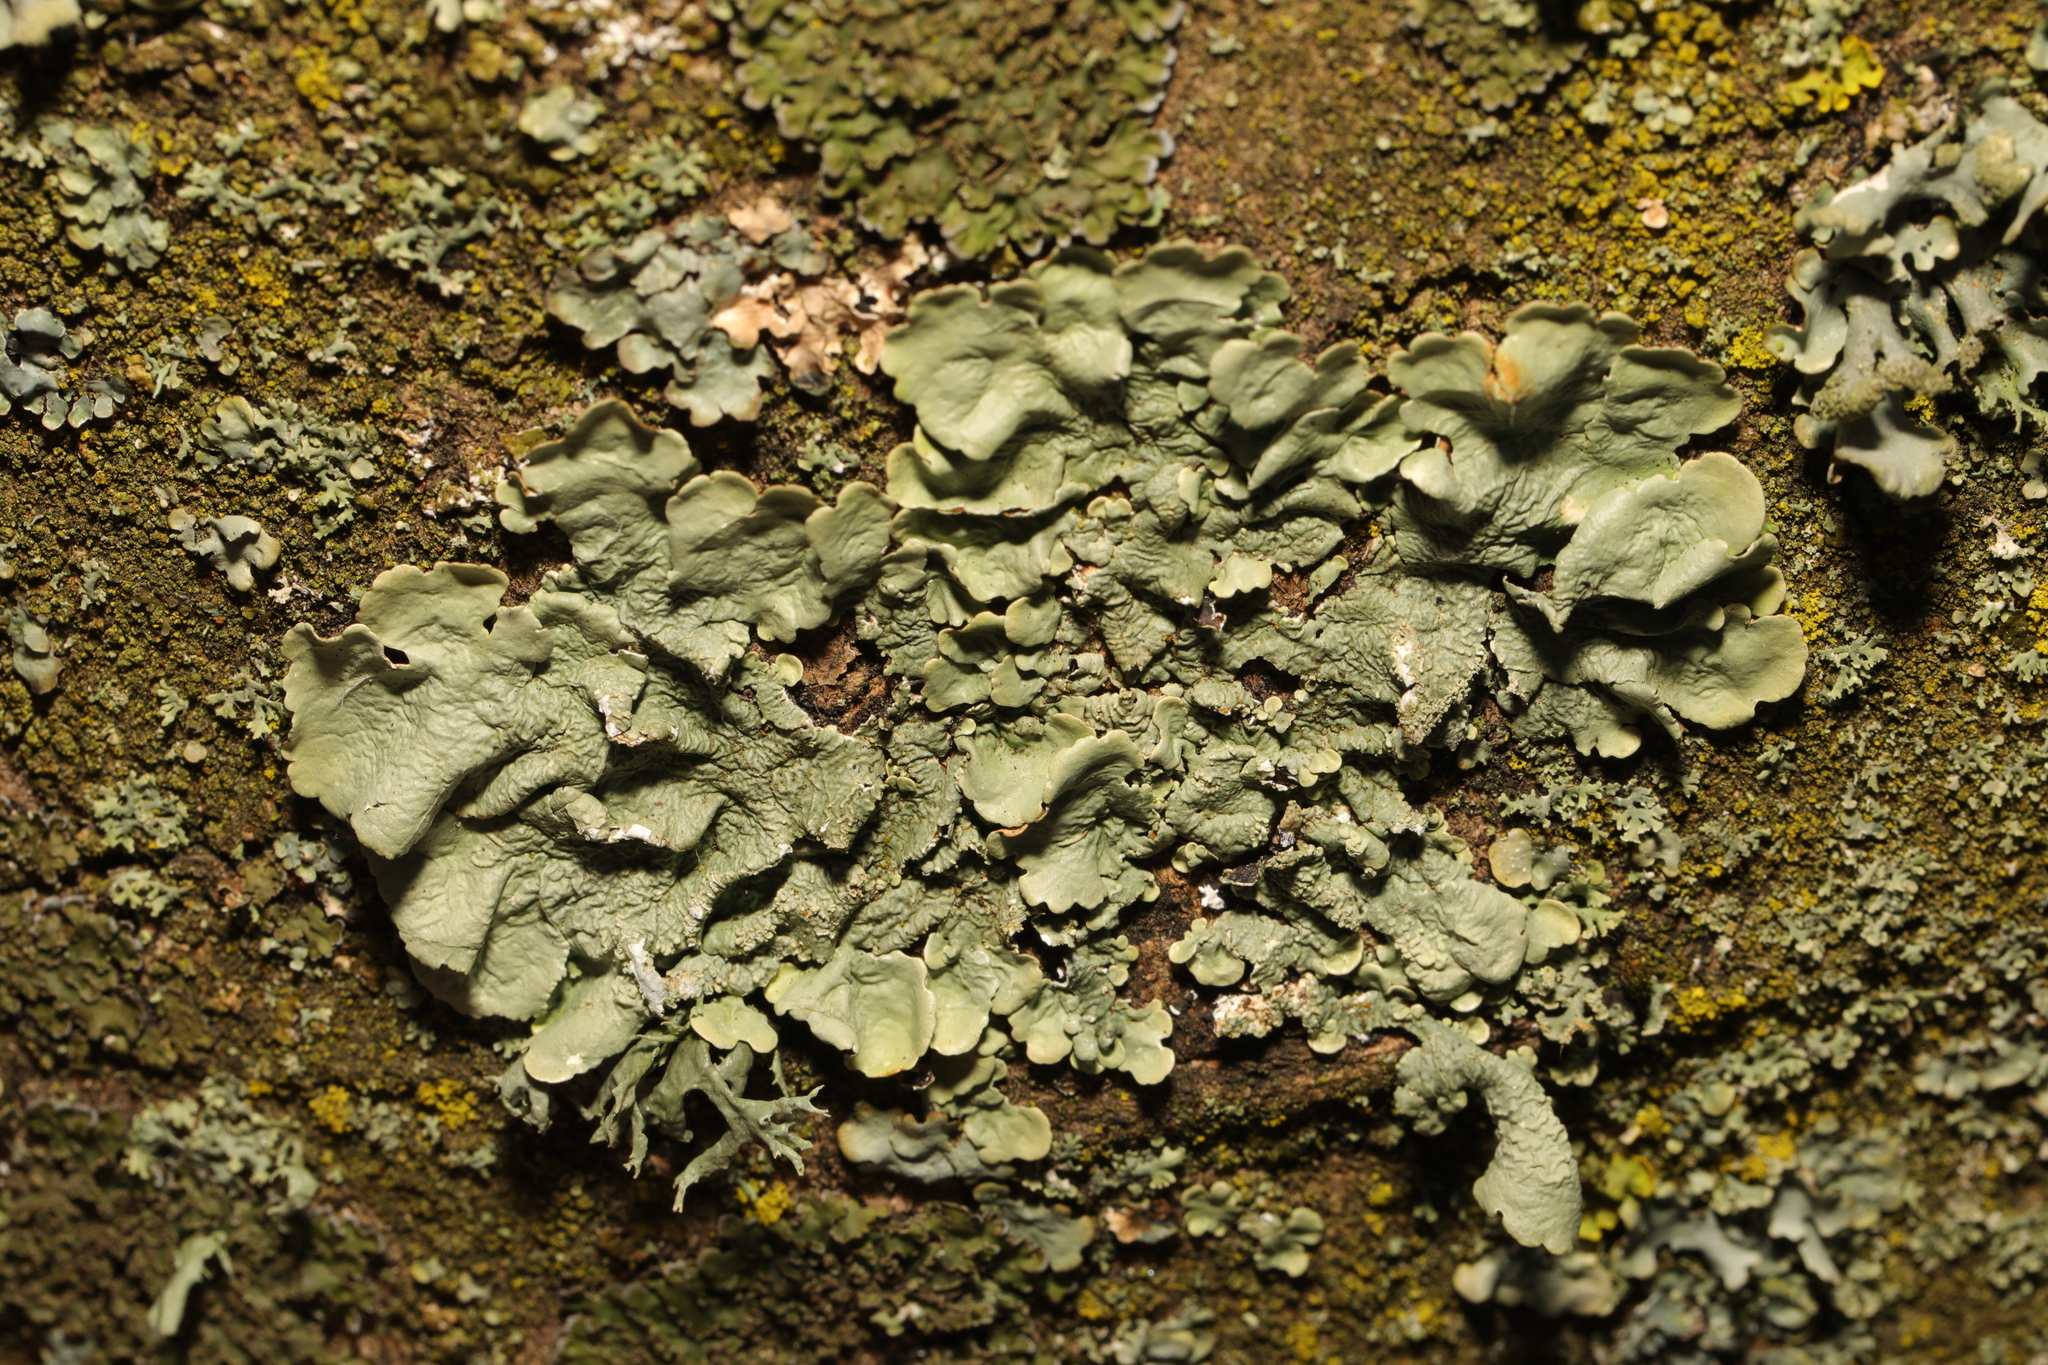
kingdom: Fungi
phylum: Ascomycota
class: Lecanoromycetes
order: Lecanorales
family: Parmeliaceae
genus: Flavoparmelia
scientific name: Flavoparmelia caperata
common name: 40-mile per hour lichen
